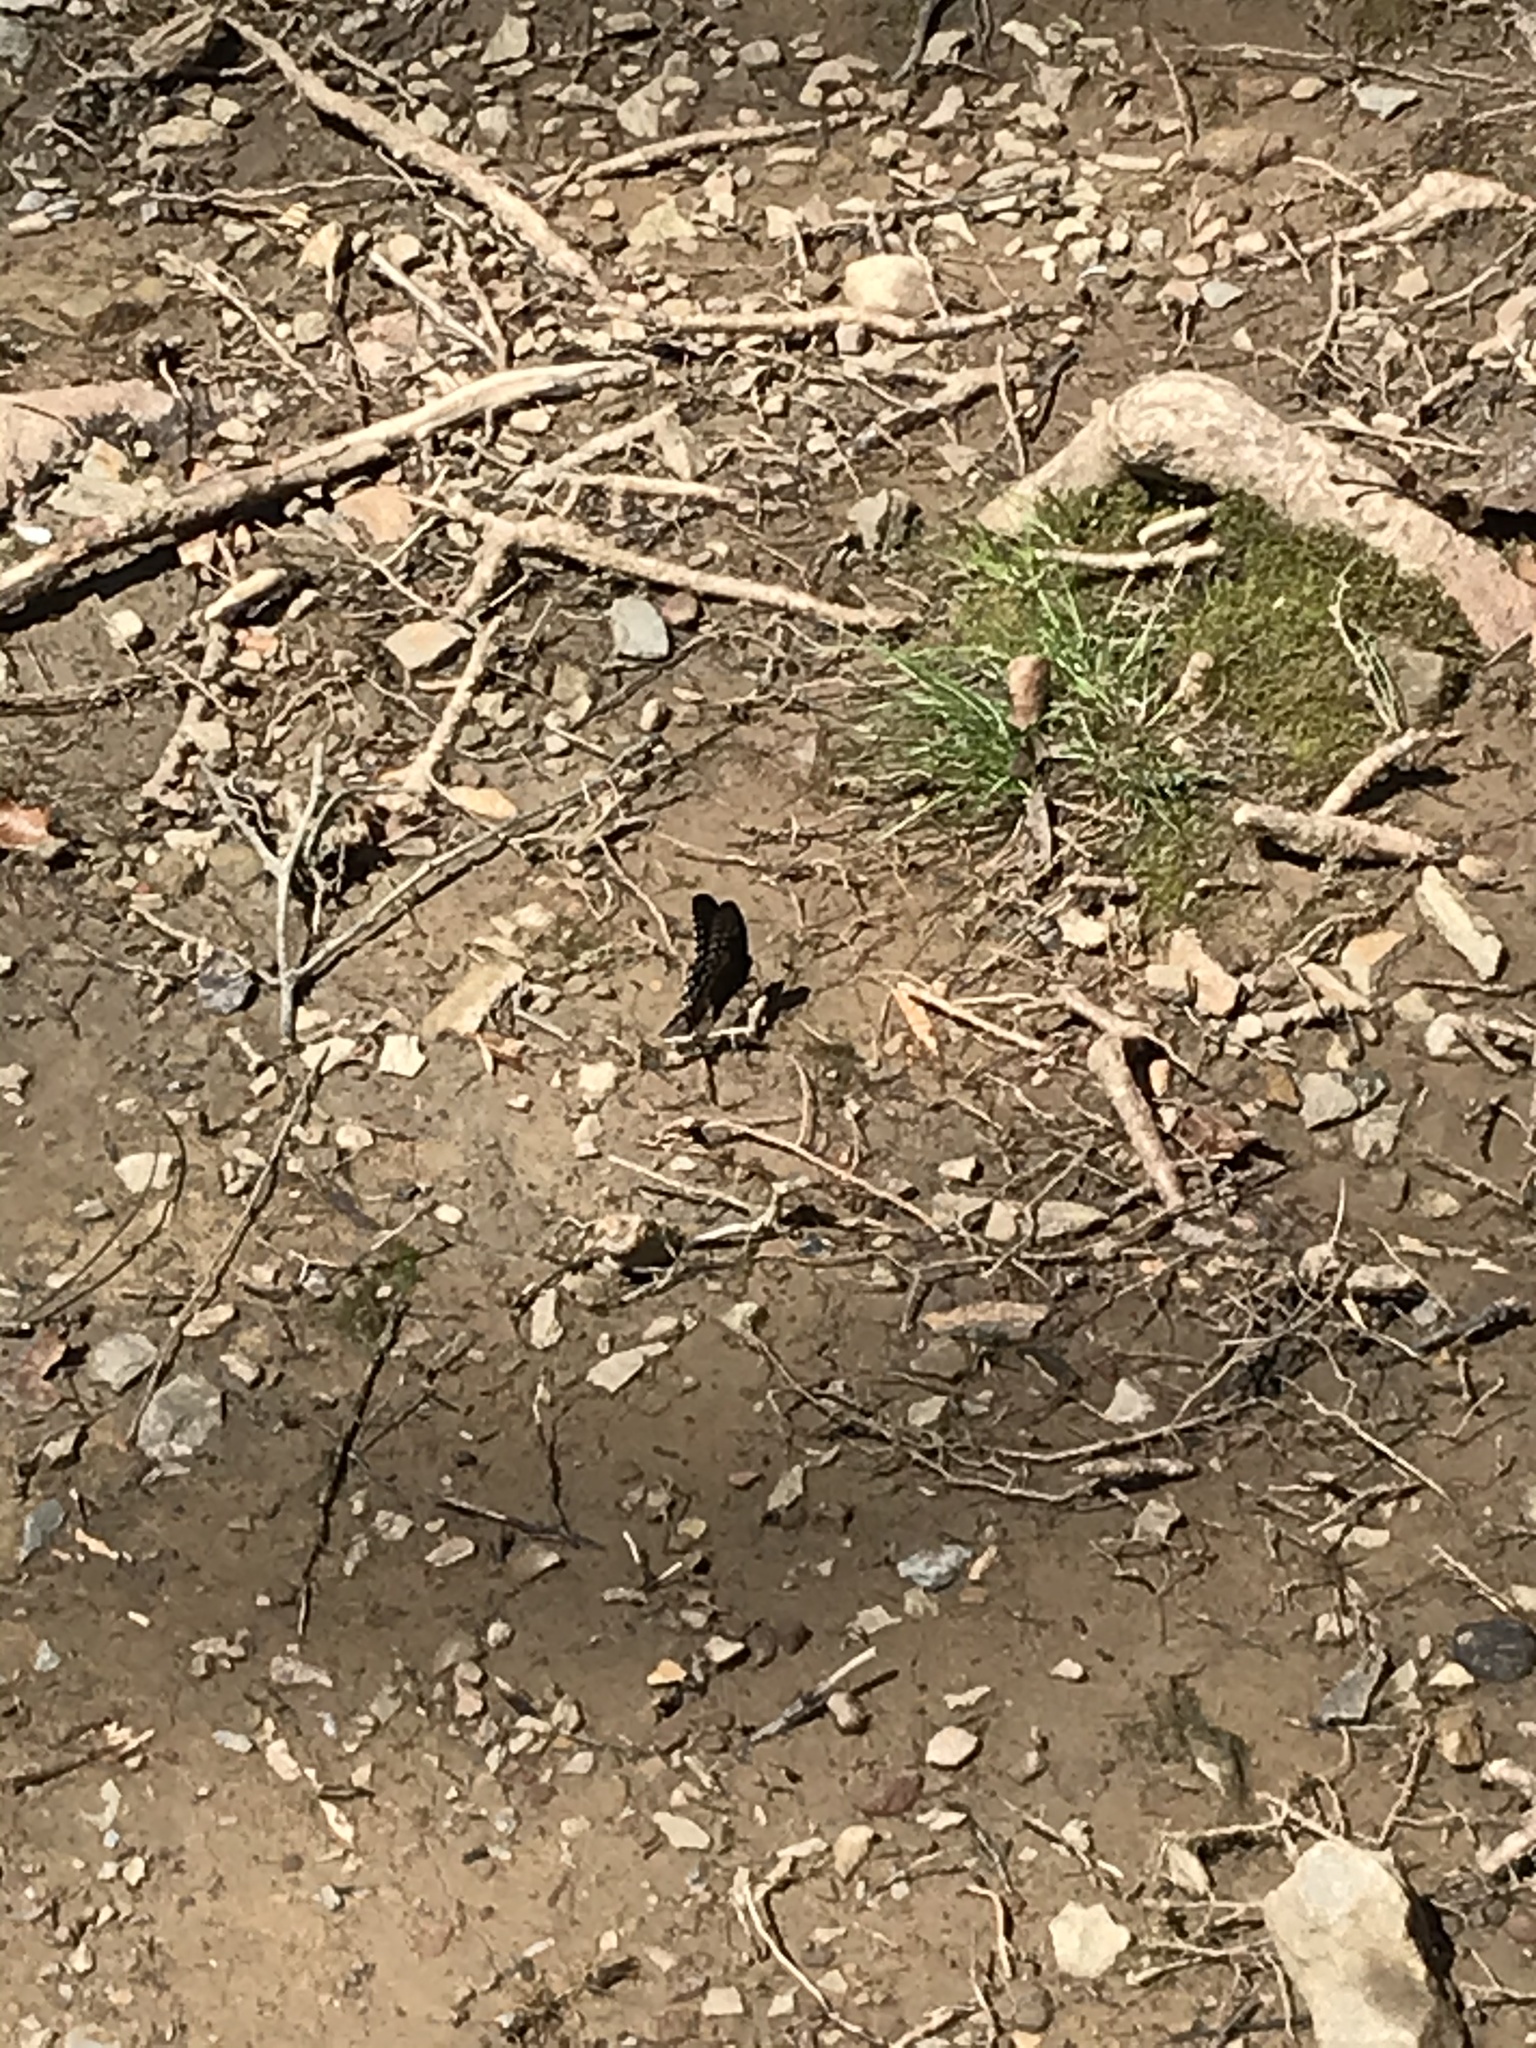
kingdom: Animalia
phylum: Arthropoda
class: Insecta
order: Lepidoptera
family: Papilionidae
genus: Papilio
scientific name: Papilio troilus
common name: Spicebush swallowtail
